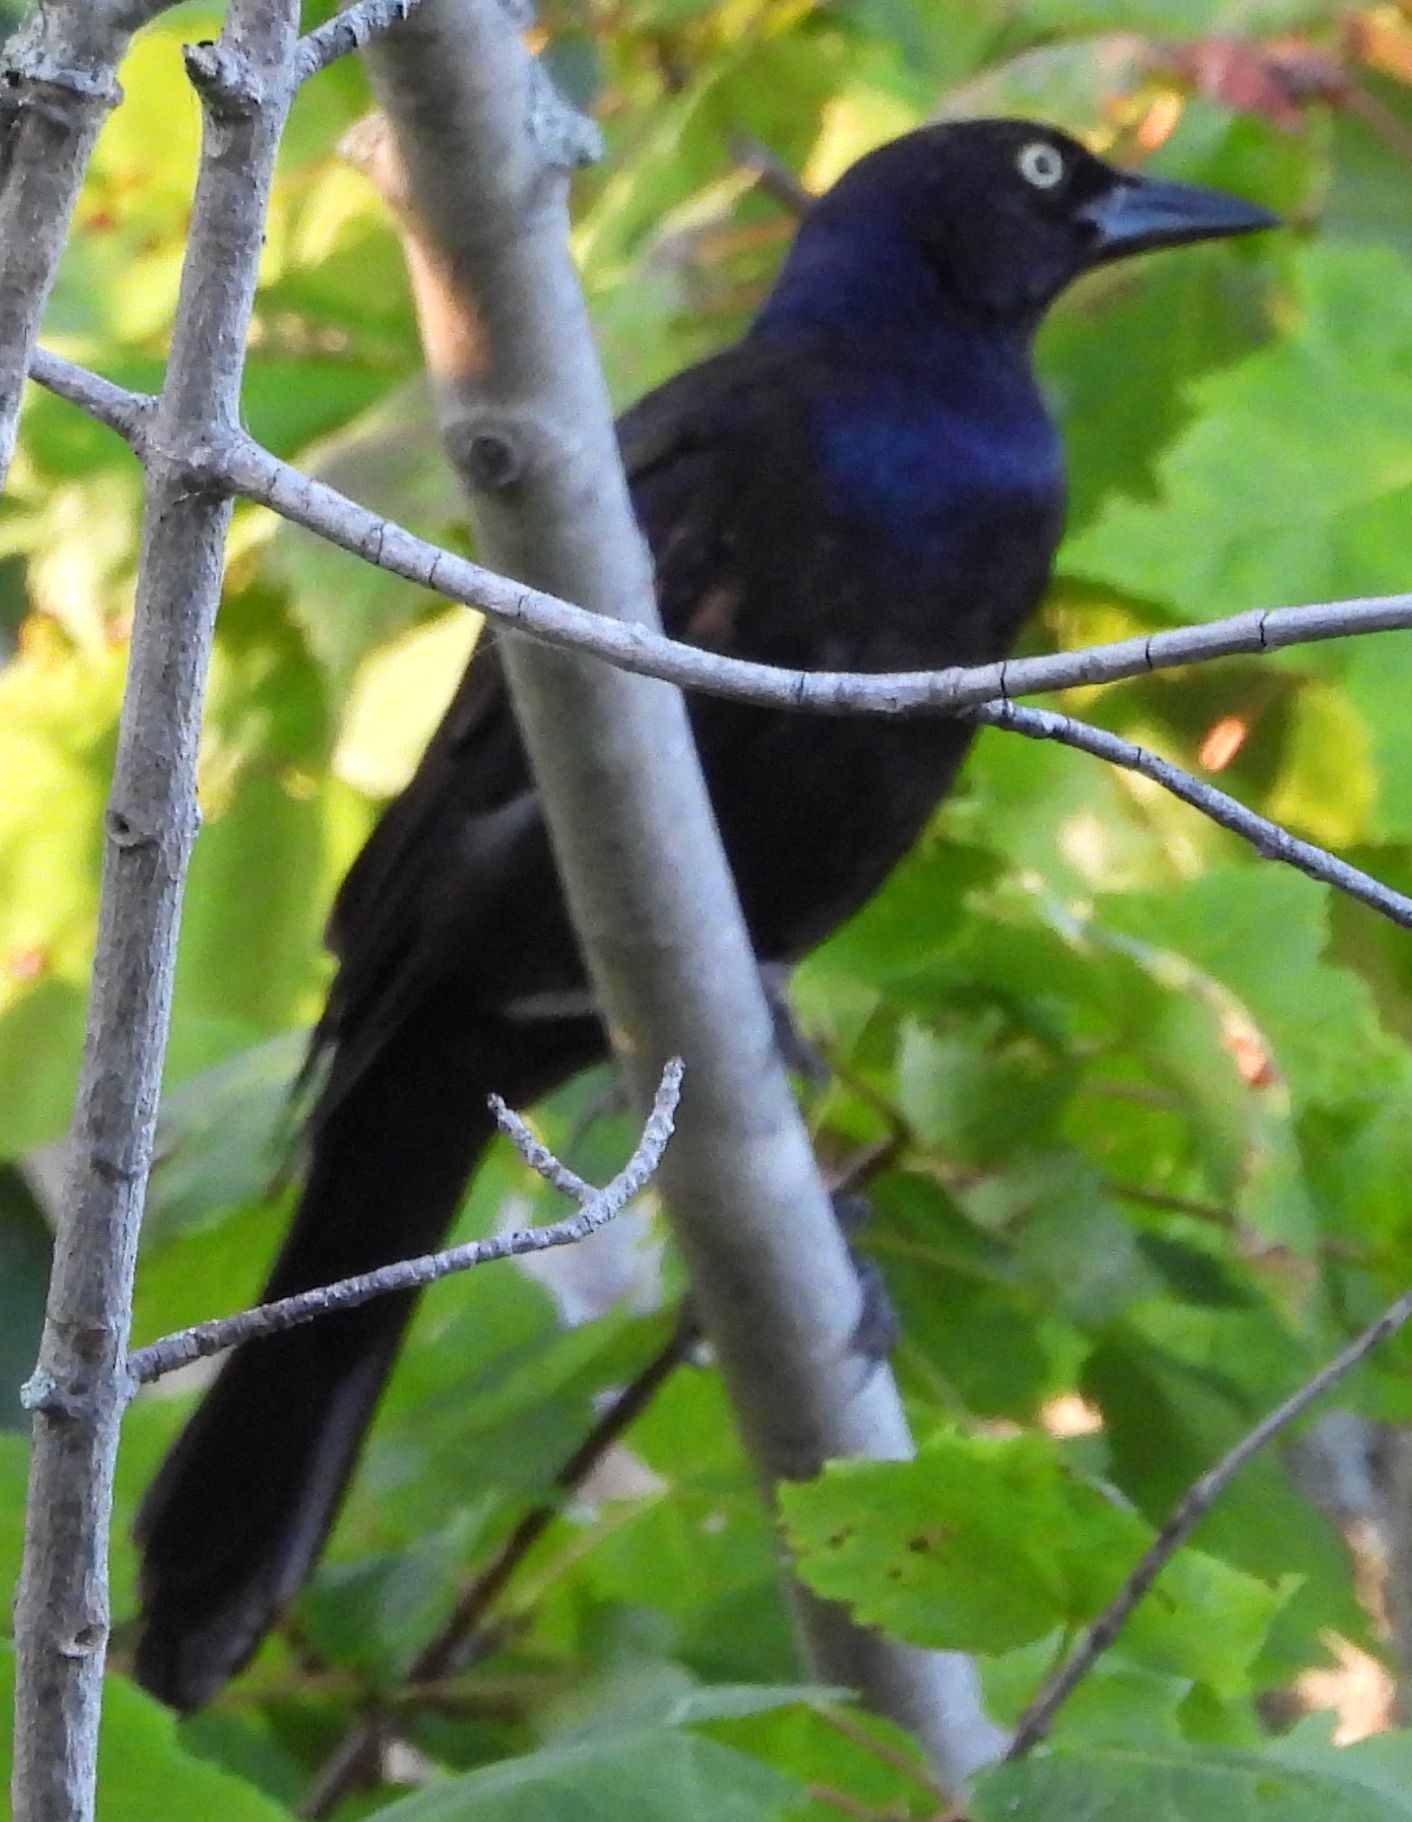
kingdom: Animalia
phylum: Chordata
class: Aves
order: Passeriformes
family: Icteridae
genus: Quiscalus
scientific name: Quiscalus quiscula
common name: Common grackle
